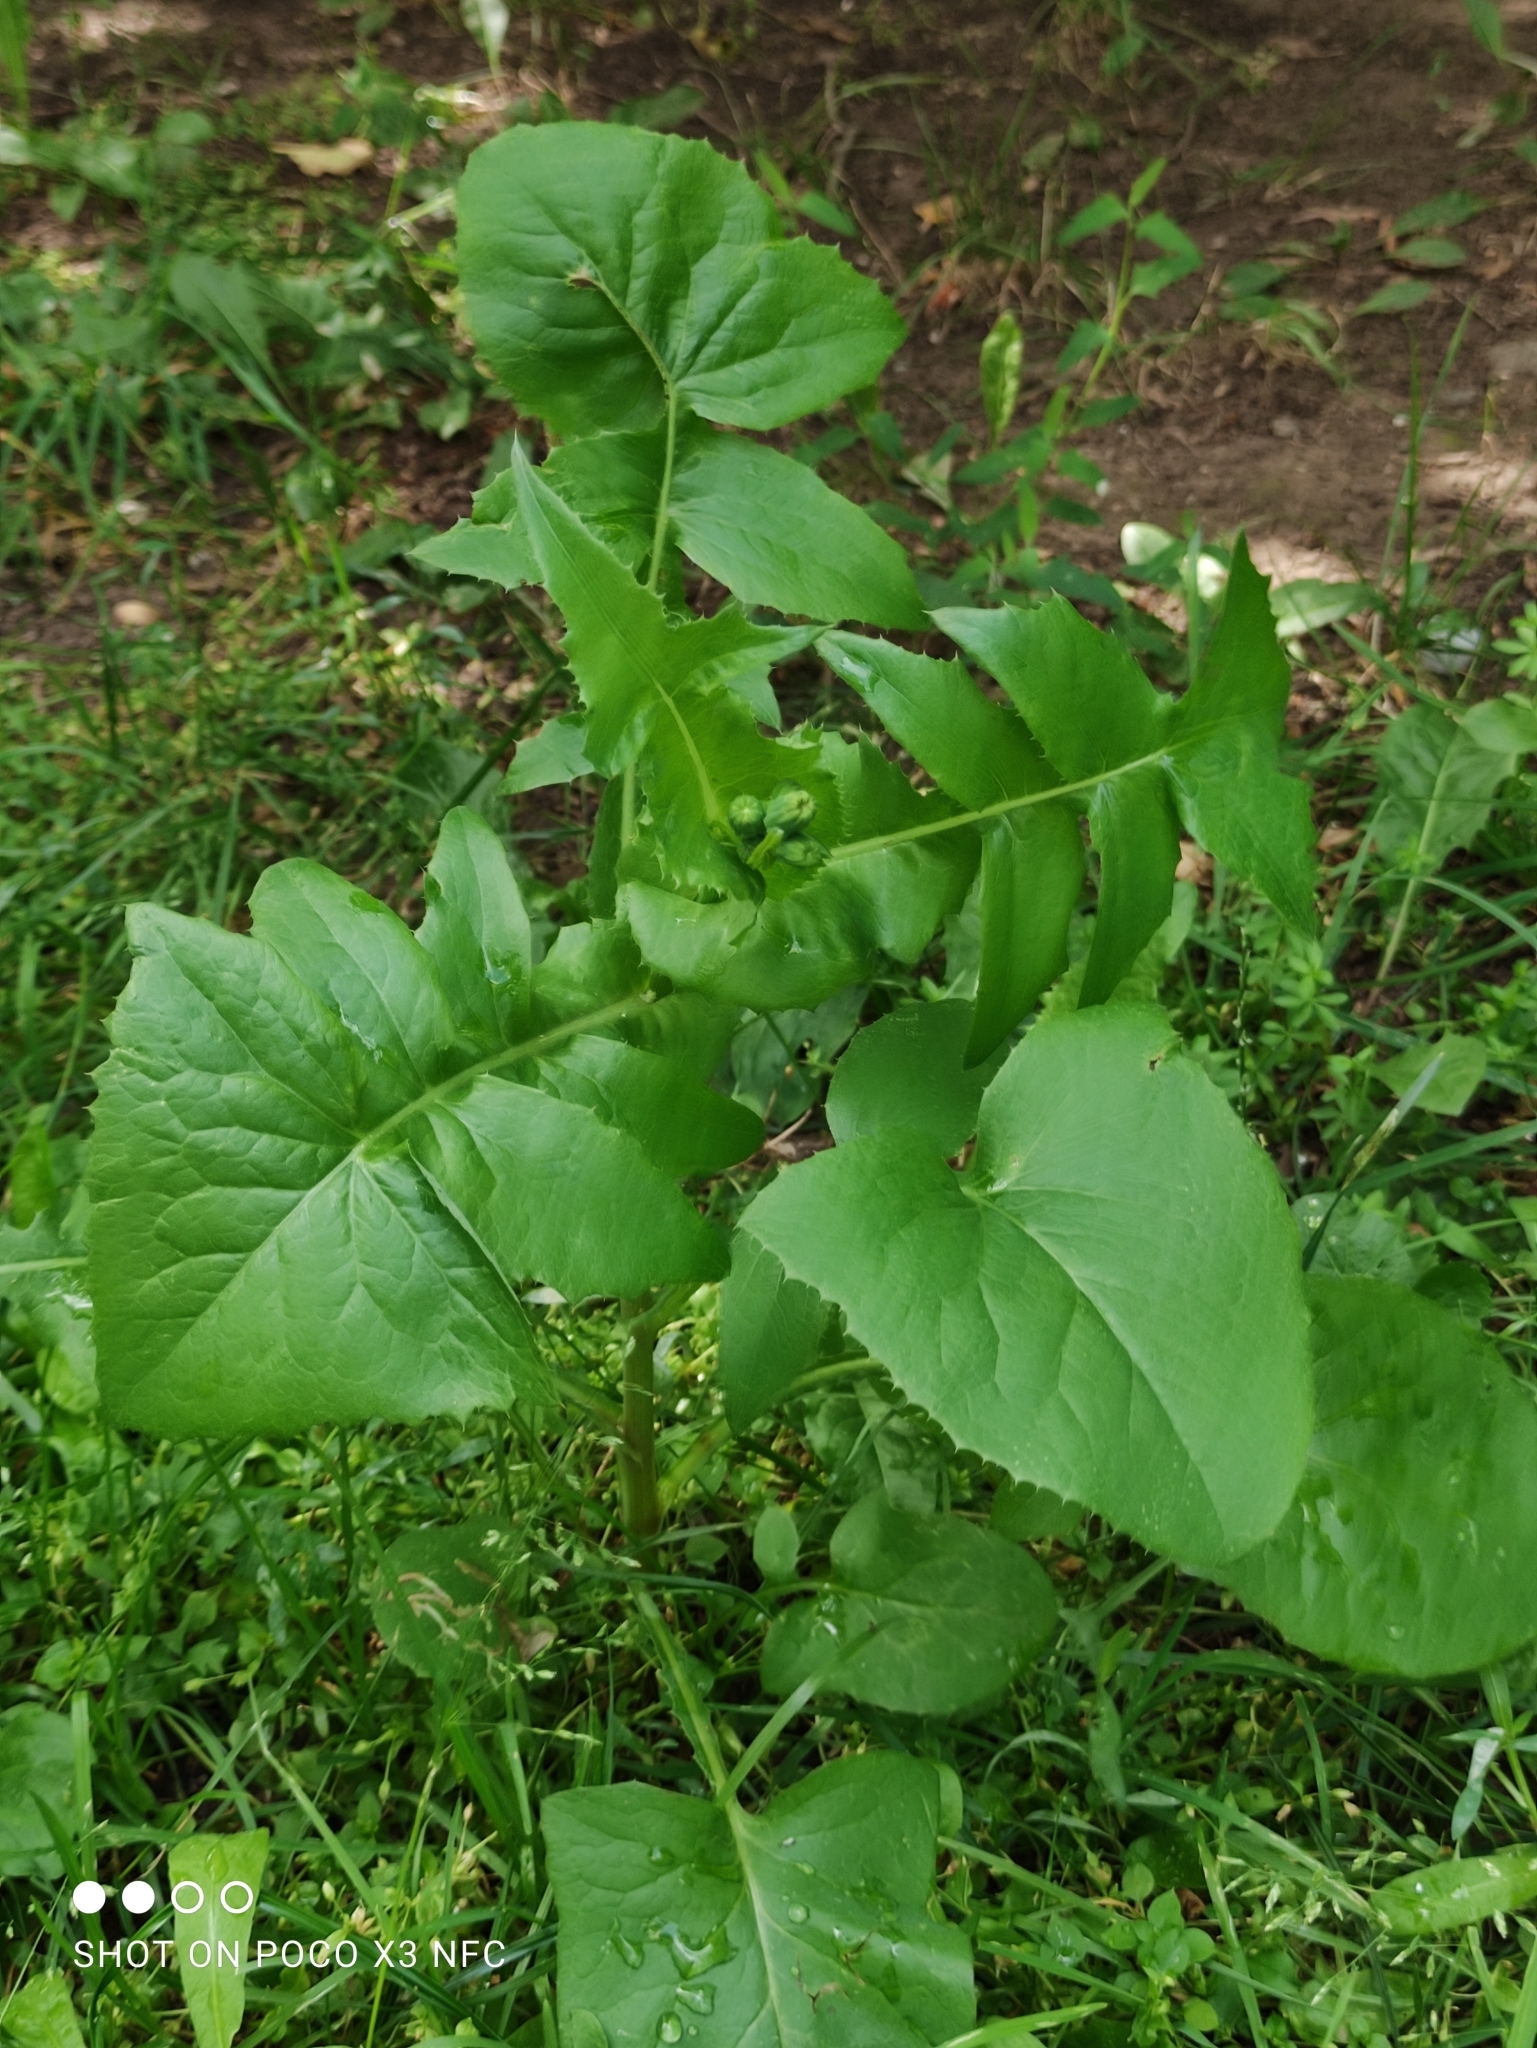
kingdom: Plantae
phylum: Tracheophyta
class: Magnoliopsida
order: Asterales
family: Asteraceae
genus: Sonchus
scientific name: Sonchus oleraceus
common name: Common sowthistle
